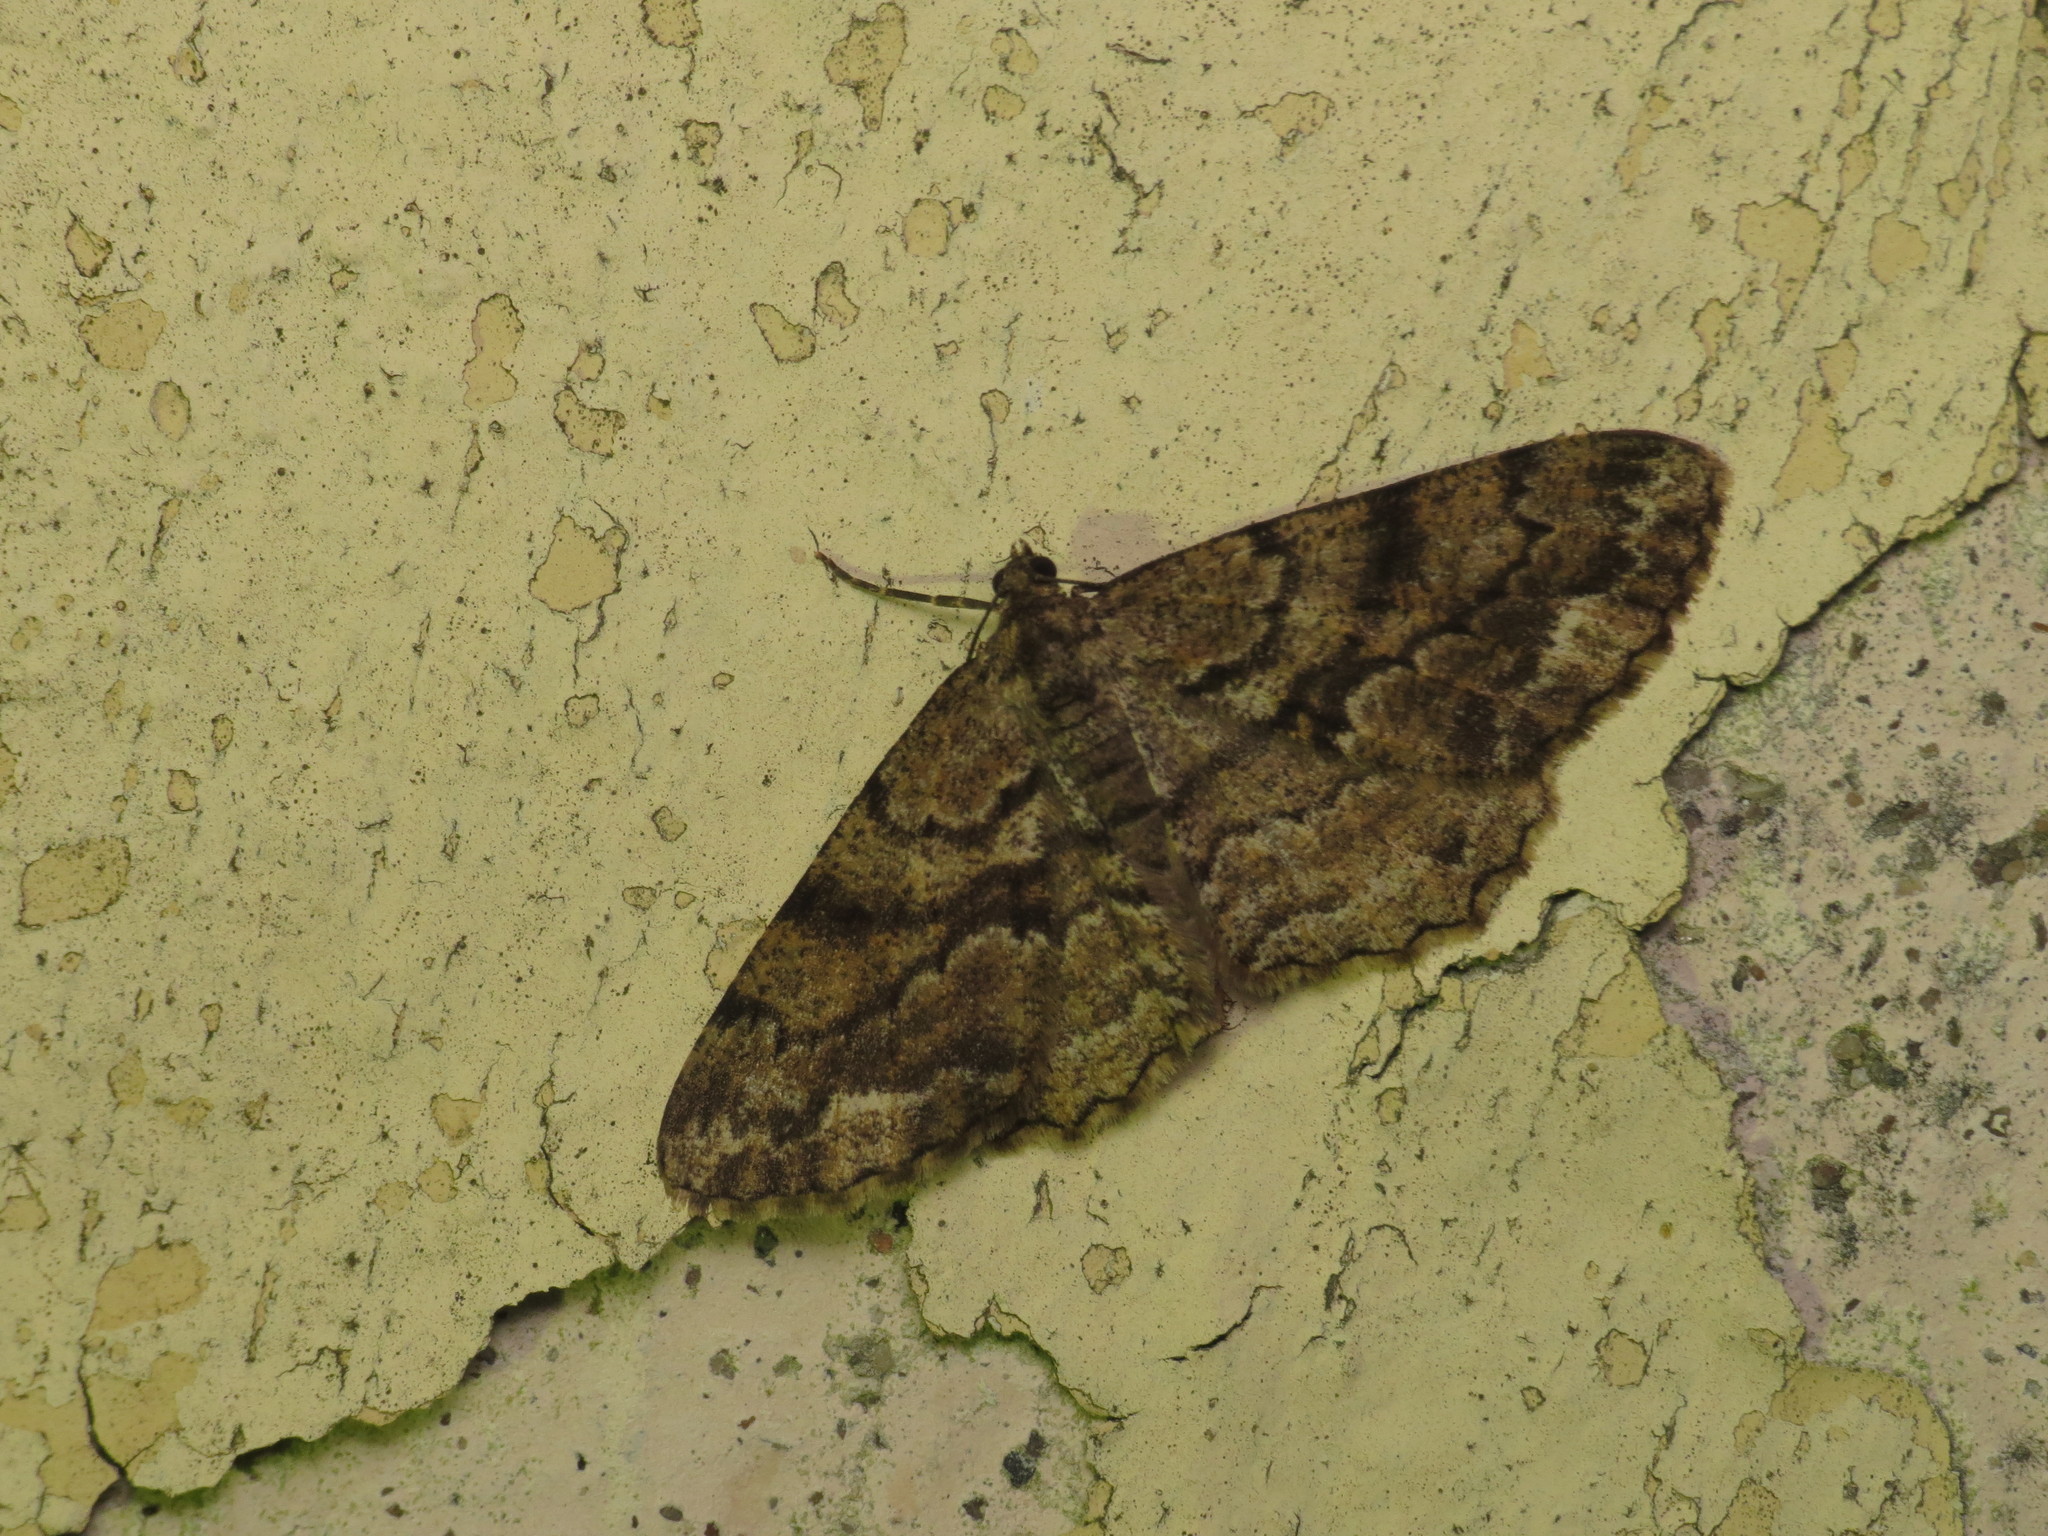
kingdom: Animalia
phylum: Arthropoda
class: Insecta
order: Lepidoptera
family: Geometridae
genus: Peribatodes
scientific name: Peribatodes secundaria
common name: Feathered beauty
